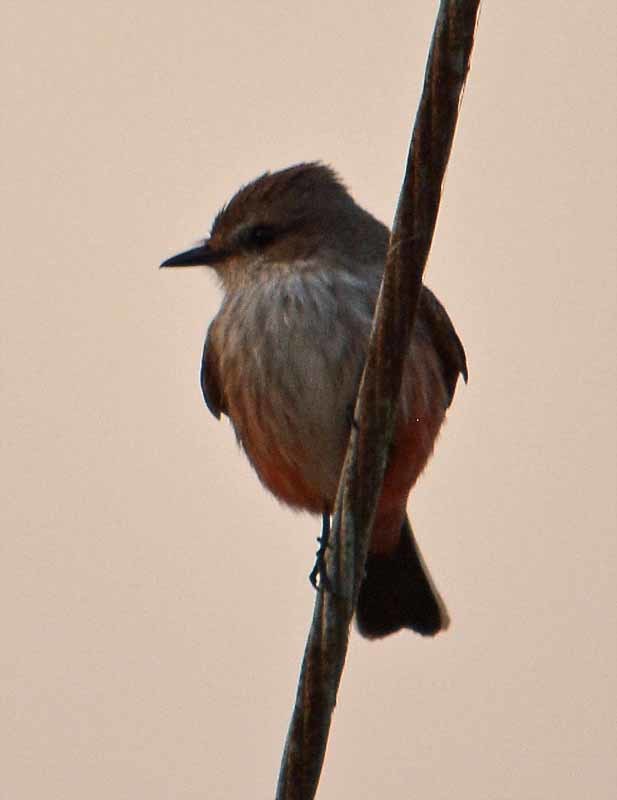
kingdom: Animalia
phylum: Chordata
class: Aves
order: Passeriformes
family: Tyrannidae
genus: Pyrocephalus
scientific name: Pyrocephalus rubinus
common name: Vermilion flycatcher
